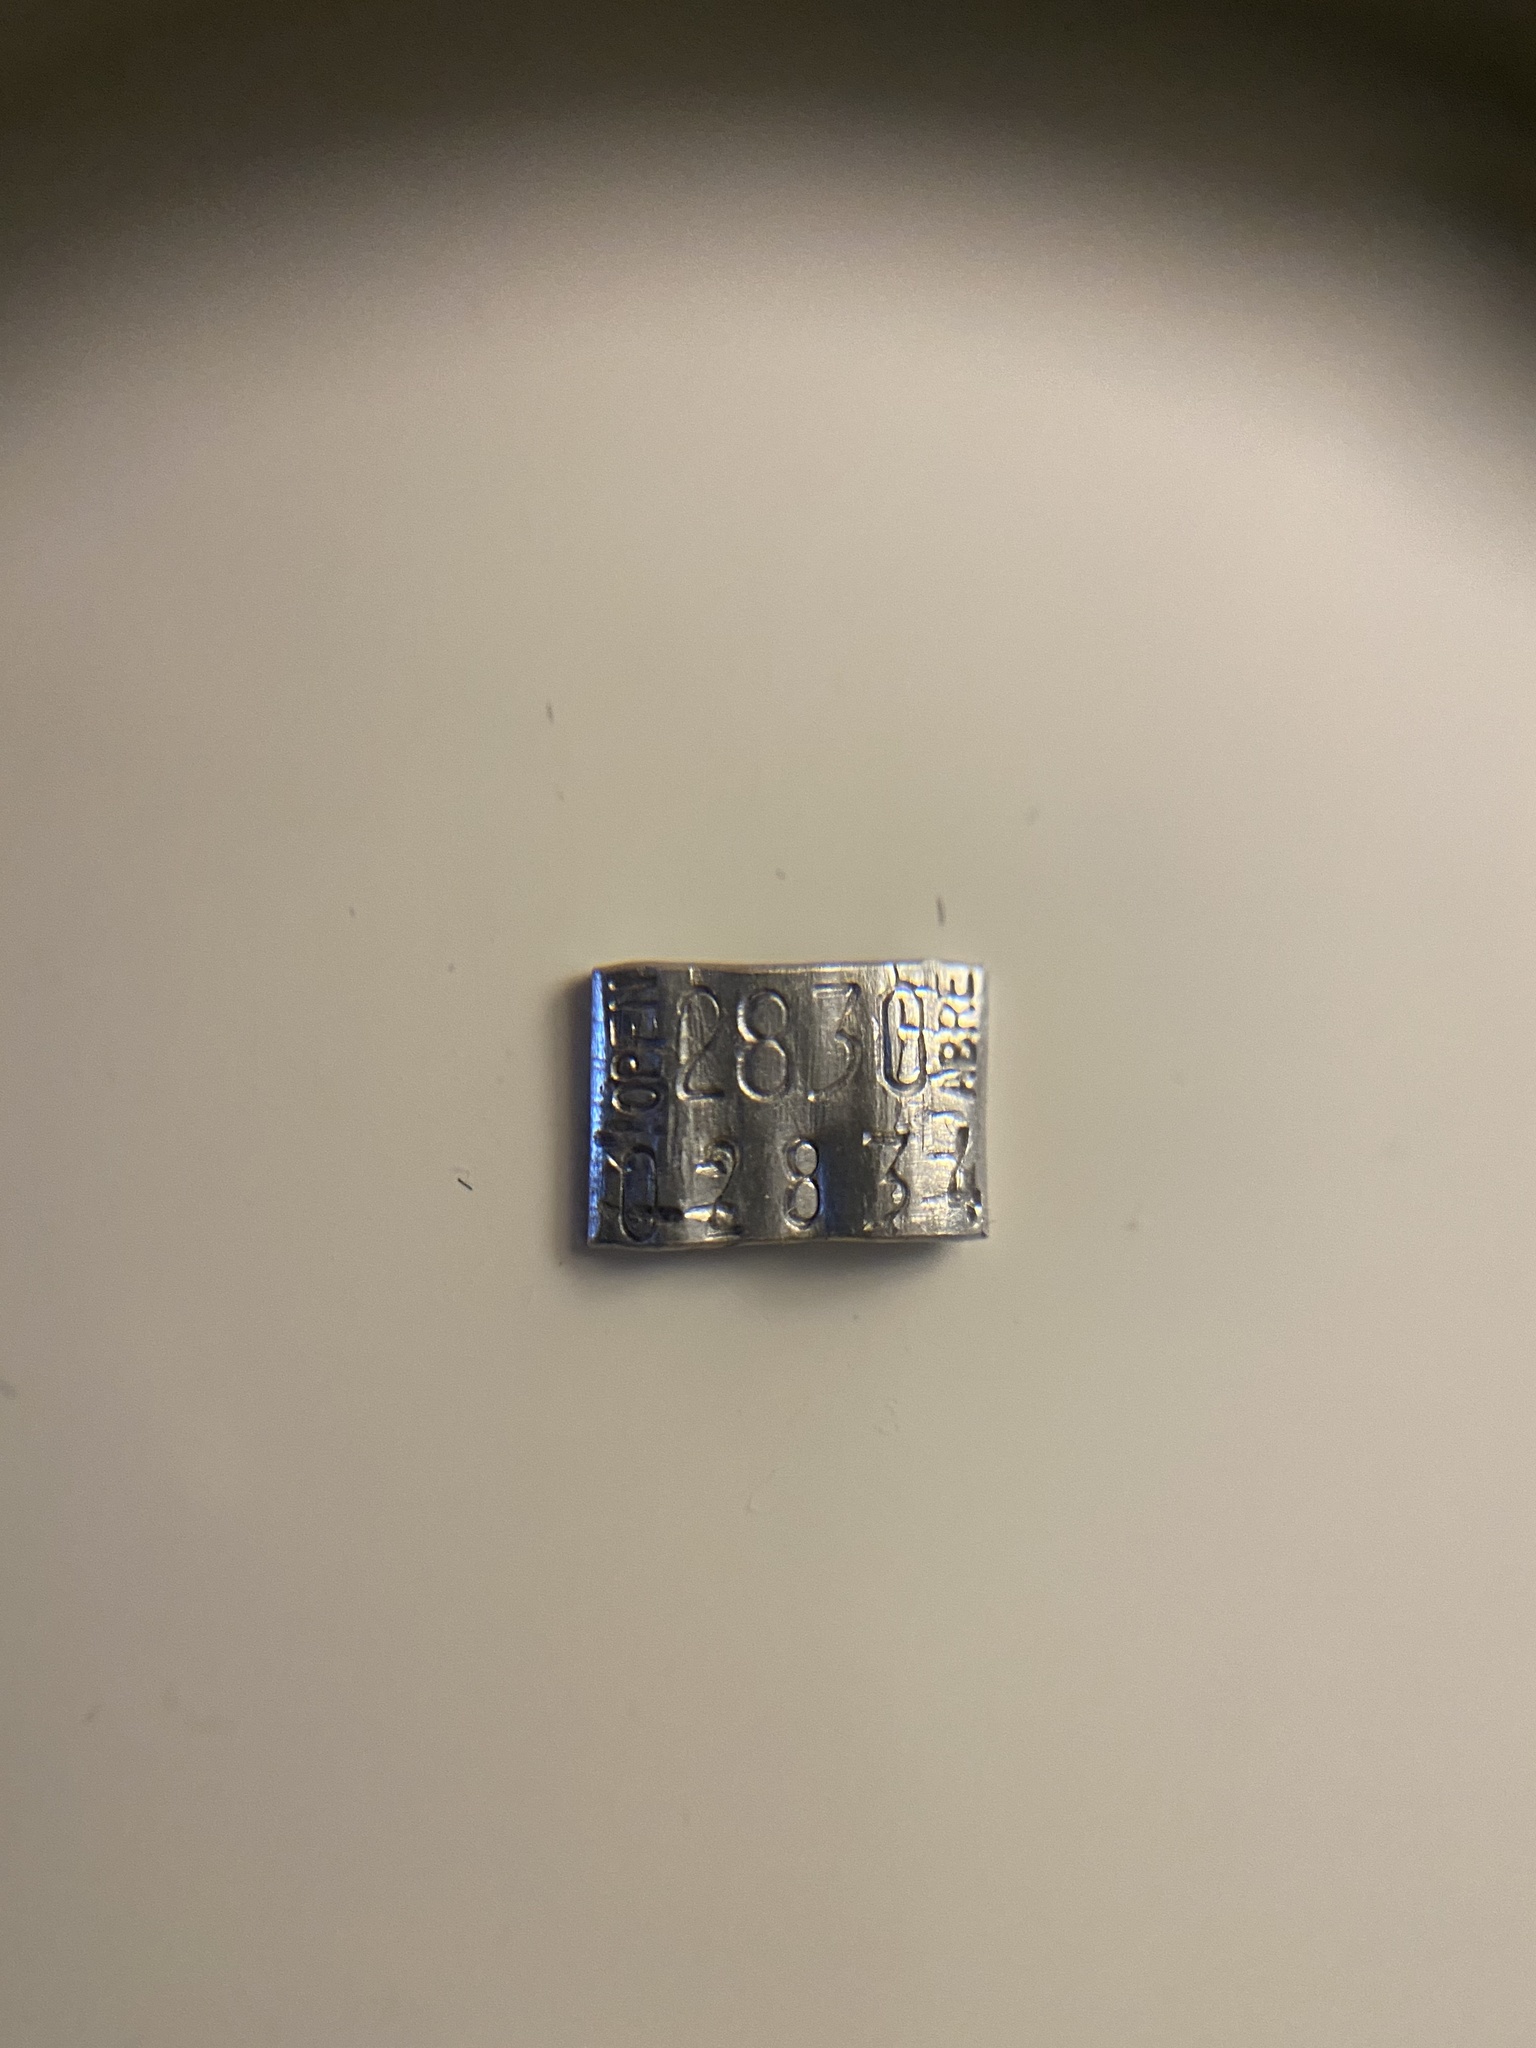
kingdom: Animalia
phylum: Chordata
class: Aves
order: Passeriformes
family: Regulidae
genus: Regulus
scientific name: Regulus calendula
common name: Ruby-crowned kinglet
